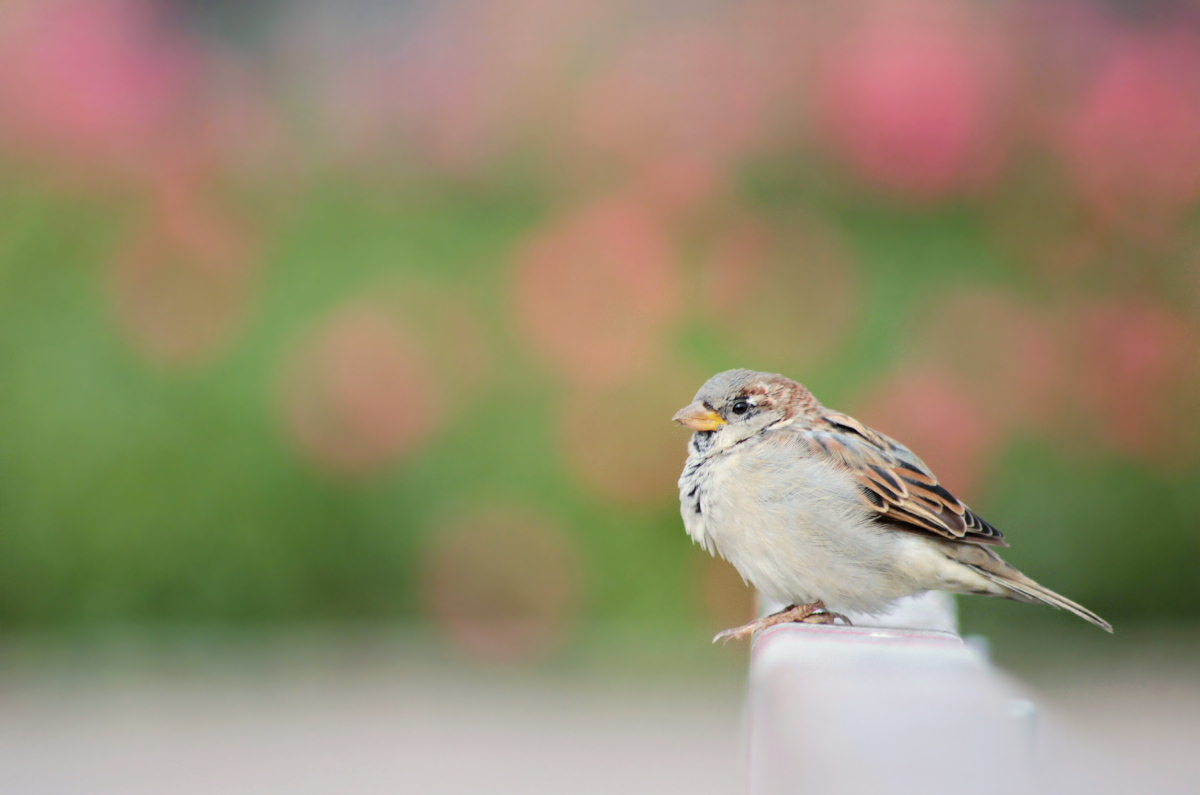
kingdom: Animalia
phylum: Chordata
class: Aves
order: Passeriformes
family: Passeridae
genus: Passer
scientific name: Passer domesticus
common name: House sparrow
